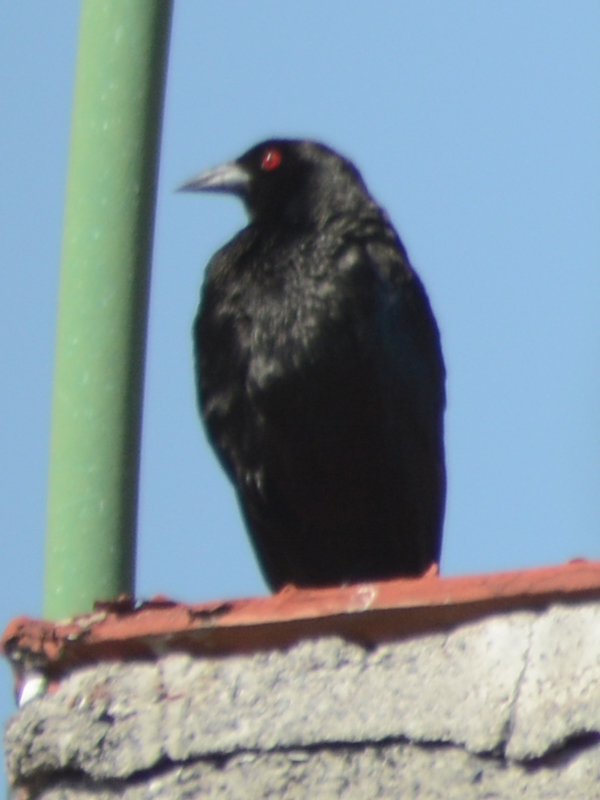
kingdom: Animalia
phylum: Chordata
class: Aves
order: Passeriformes
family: Icteridae
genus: Molothrus
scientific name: Molothrus aeneus
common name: Bronzed cowbird
